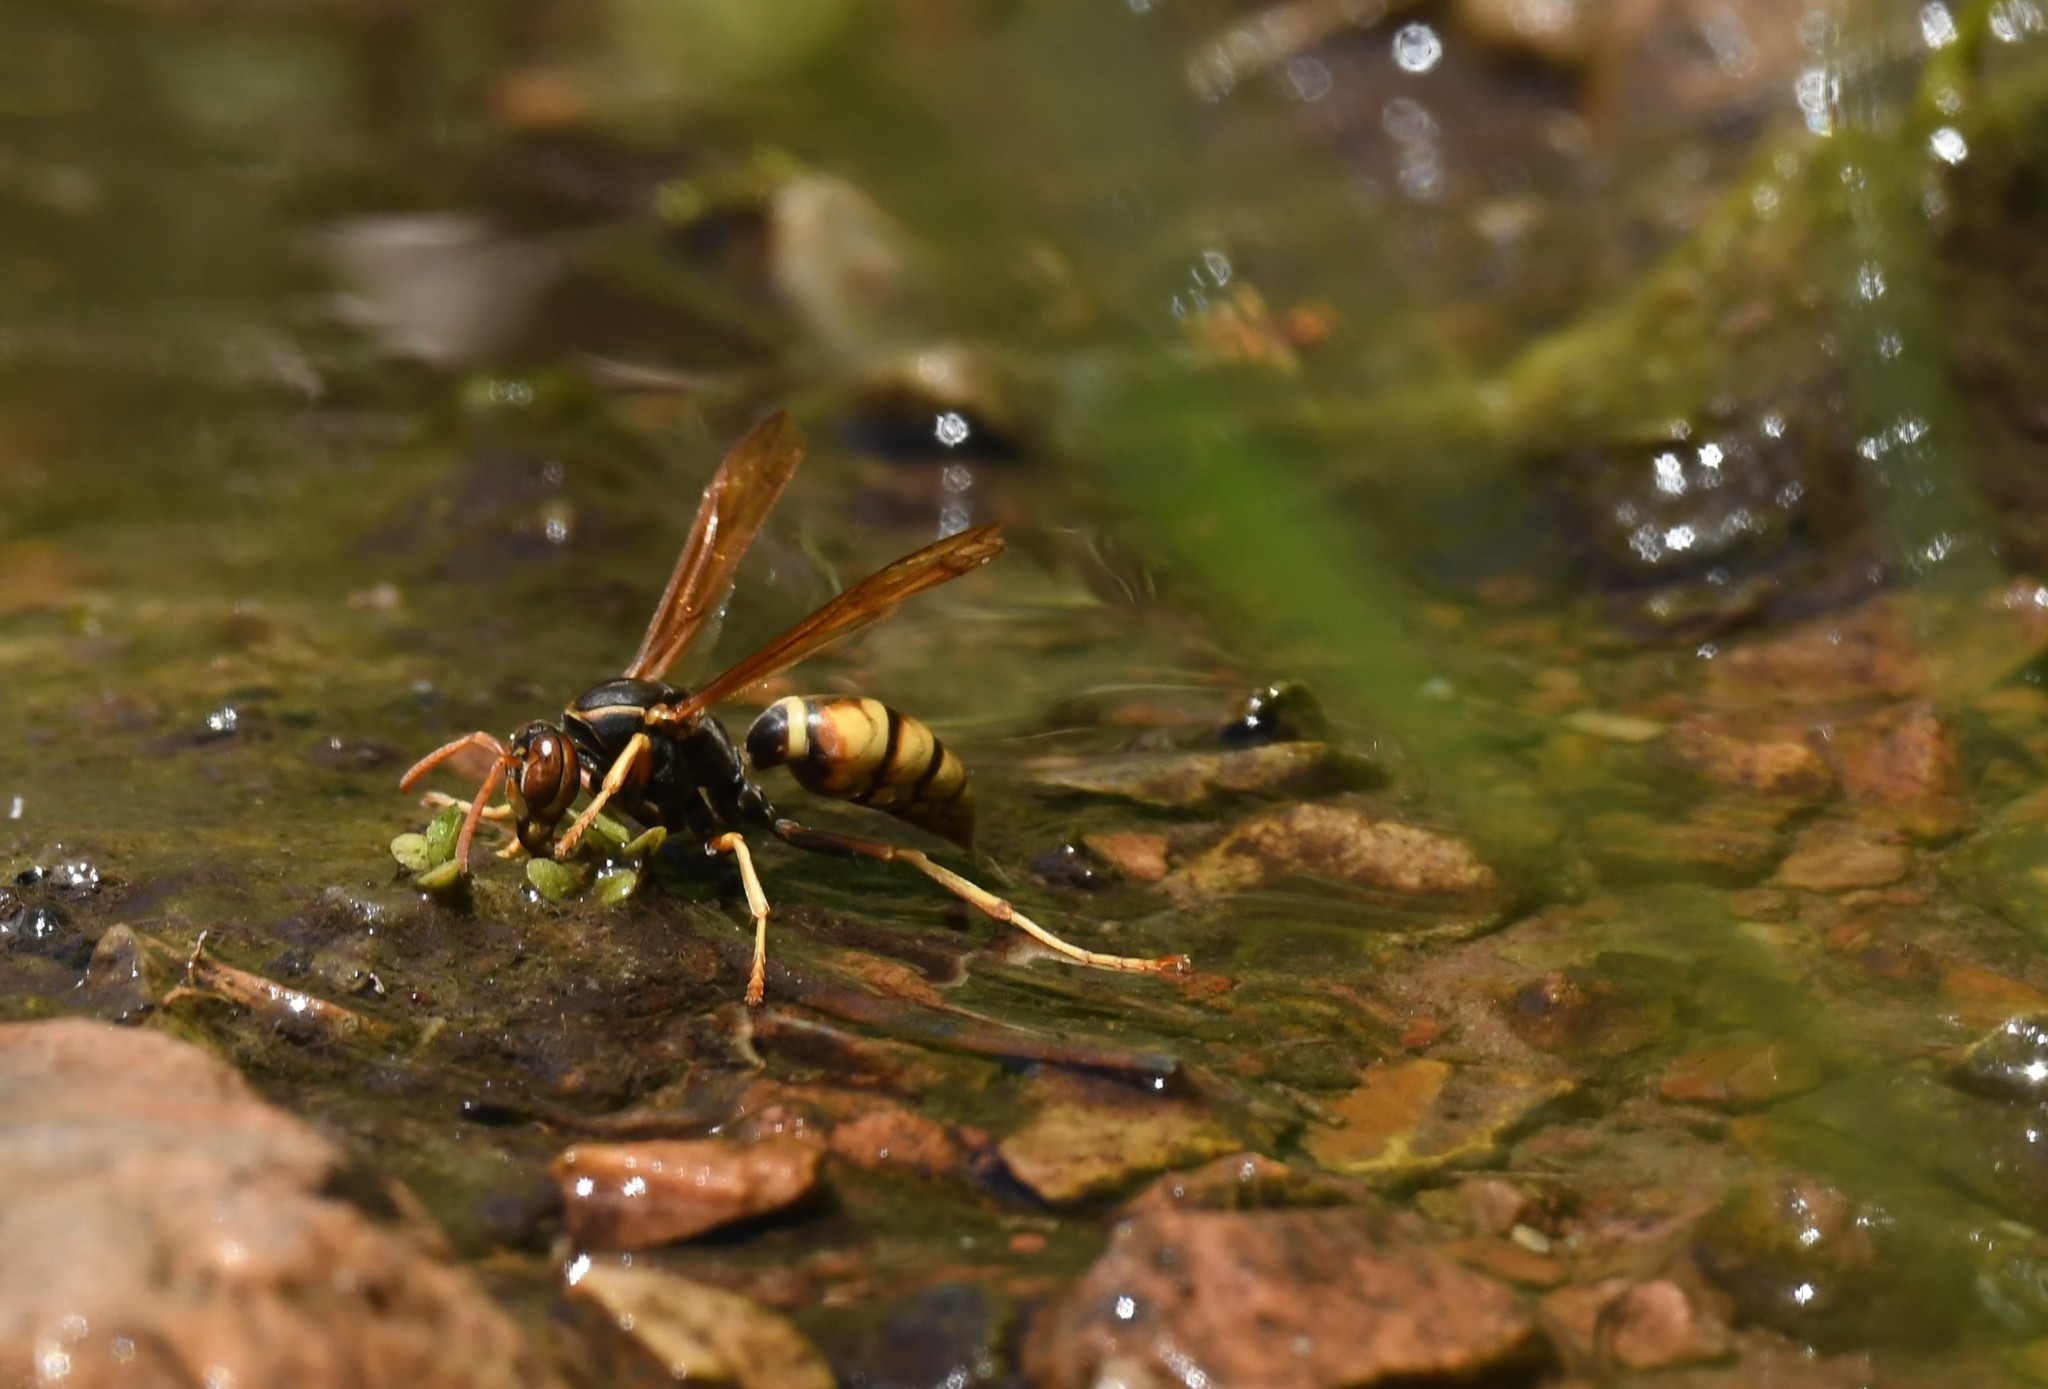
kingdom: Animalia
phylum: Arthropoda
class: Insecta
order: Hymenoptera
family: Eumenidae
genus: Polistes
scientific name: Polistes aurifer
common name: Paper wasp
